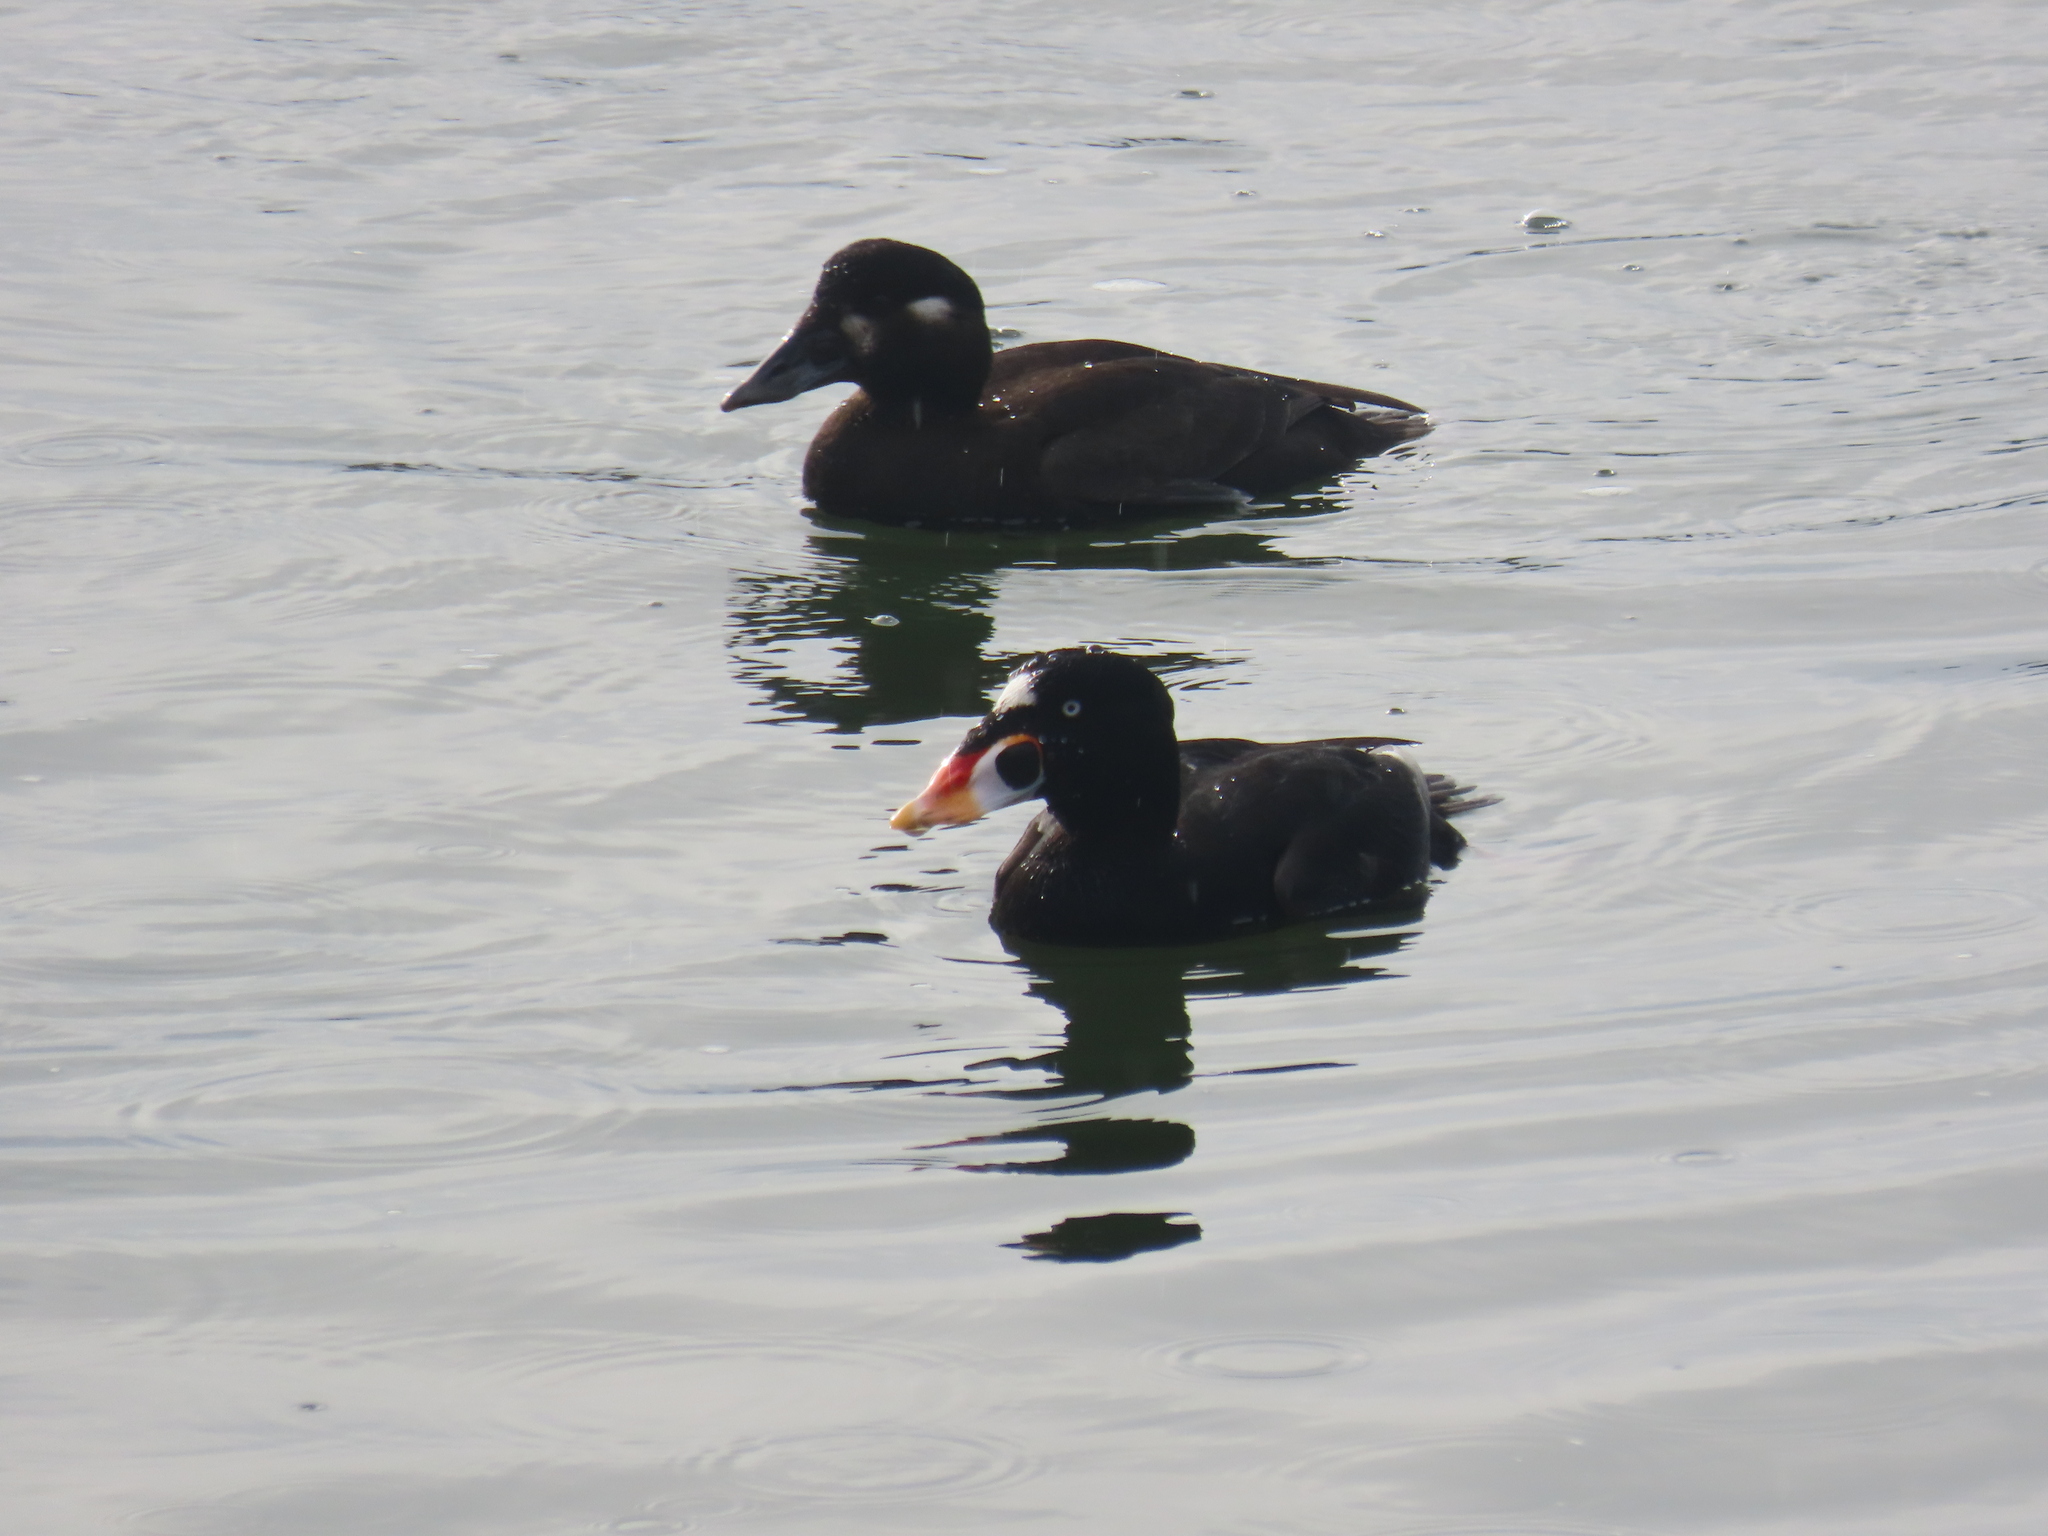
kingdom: Animalia
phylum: Chordata
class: Aves
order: Anseriformes
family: Anatidae
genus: Melanitta
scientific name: Melanitta perspicillata
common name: Surf scoter
